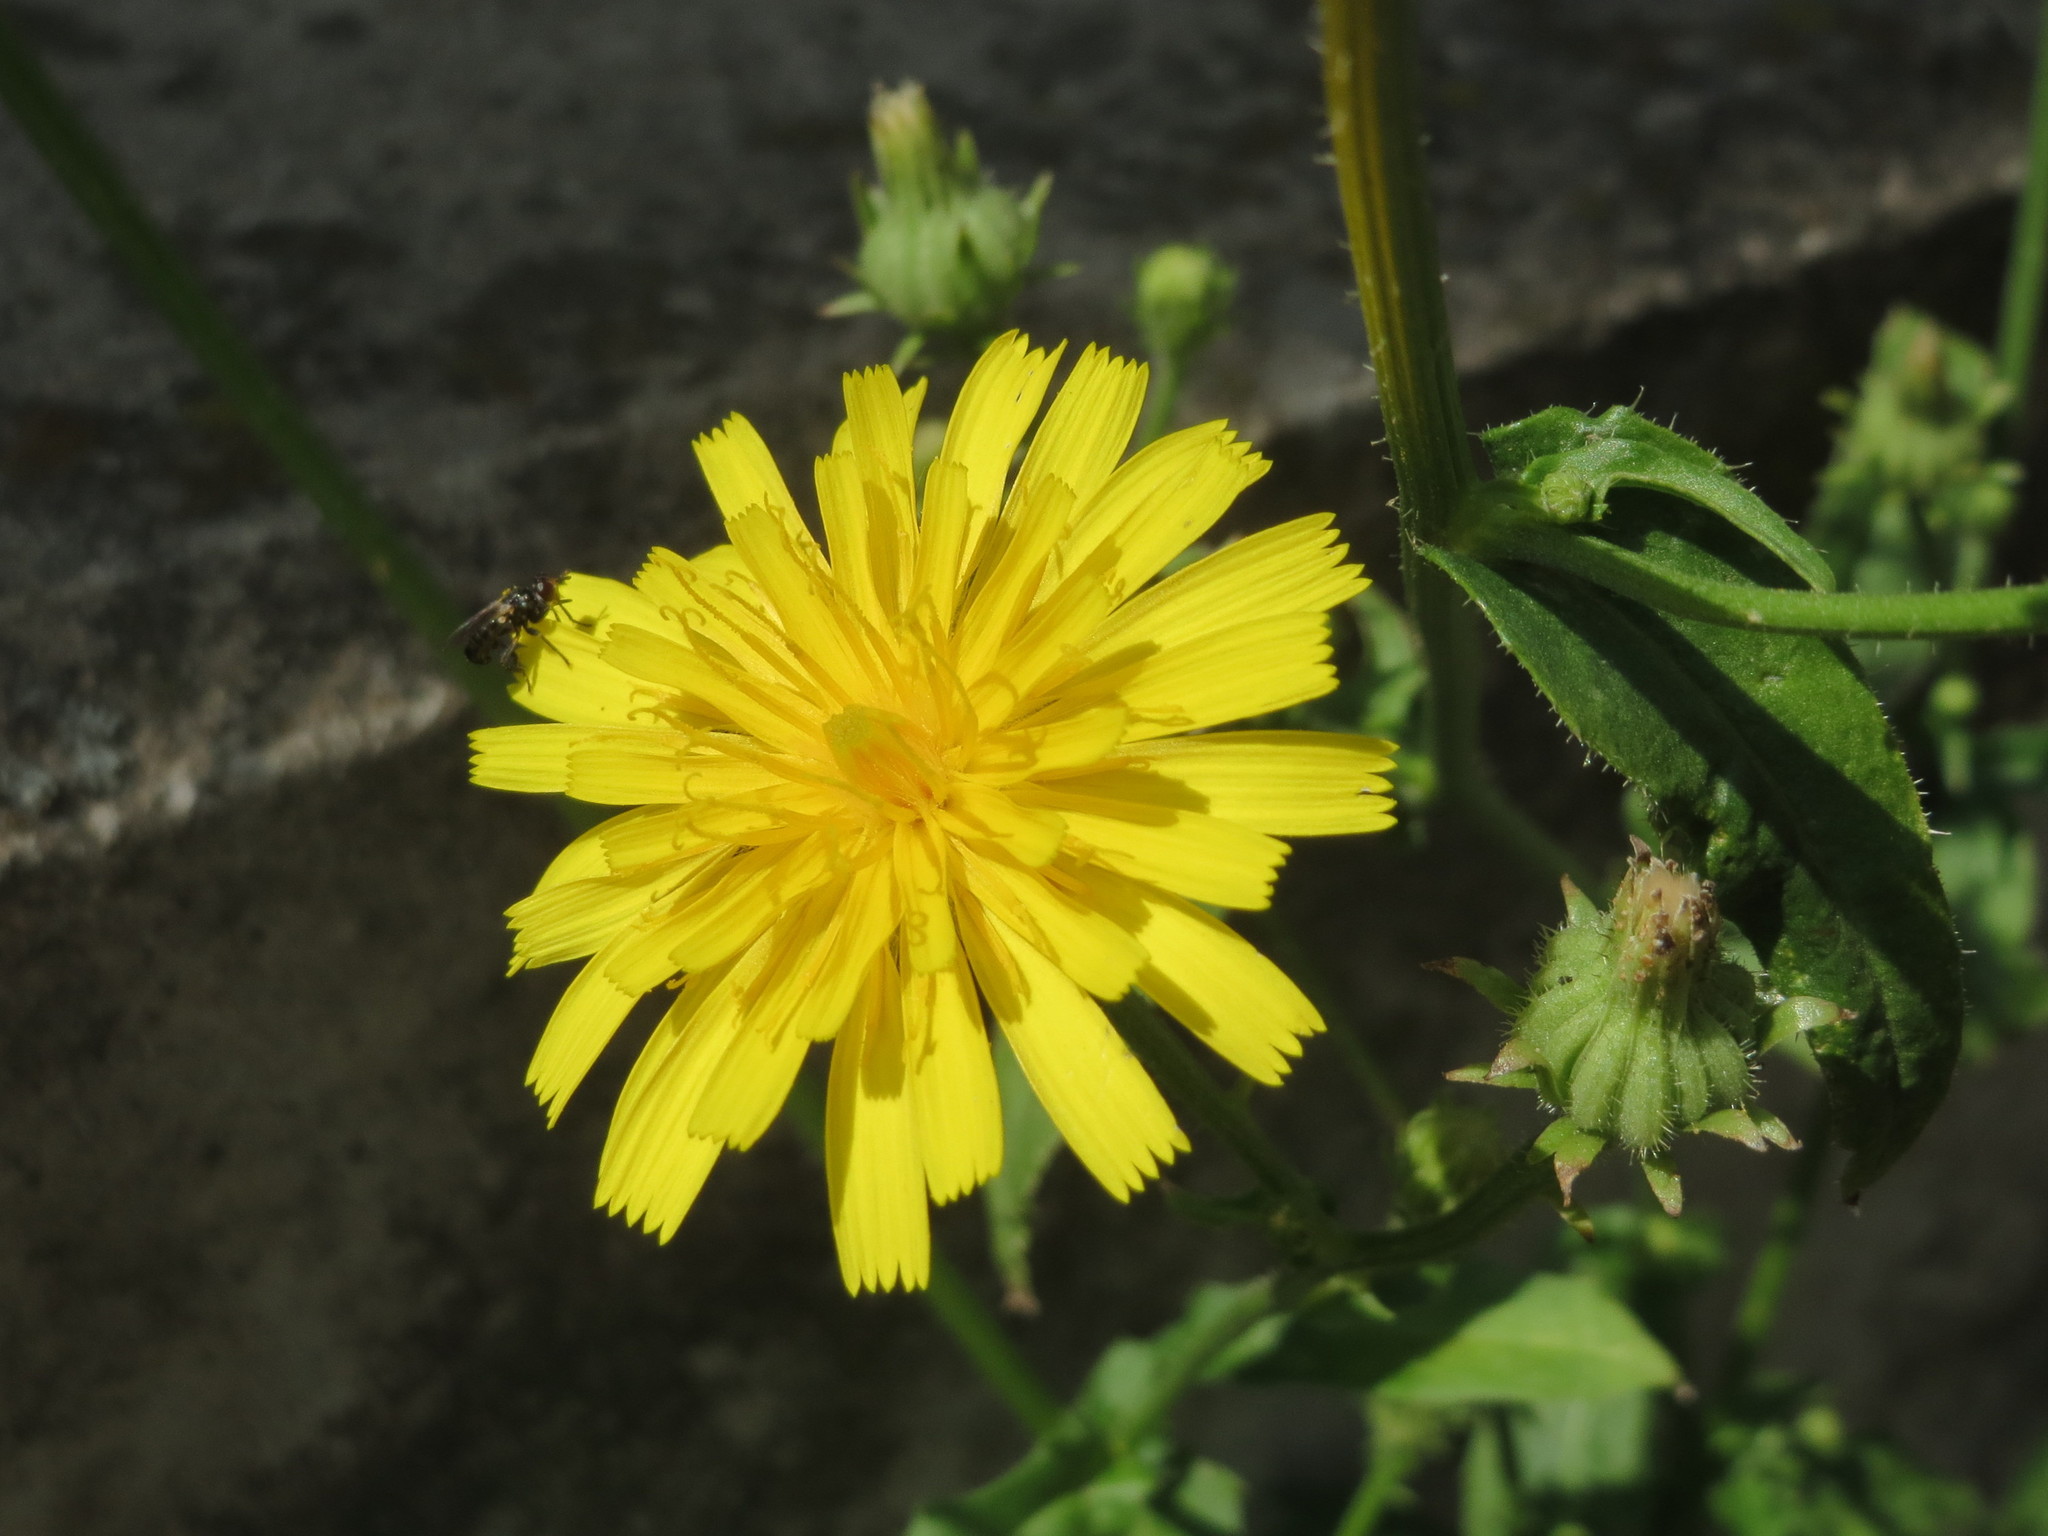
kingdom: Plantae
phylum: Tracheophyta
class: Magnoliopsida
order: Asterales
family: Asteraceae
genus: Picris
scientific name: Picris hieracioides
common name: Hawkweed oxtongue
